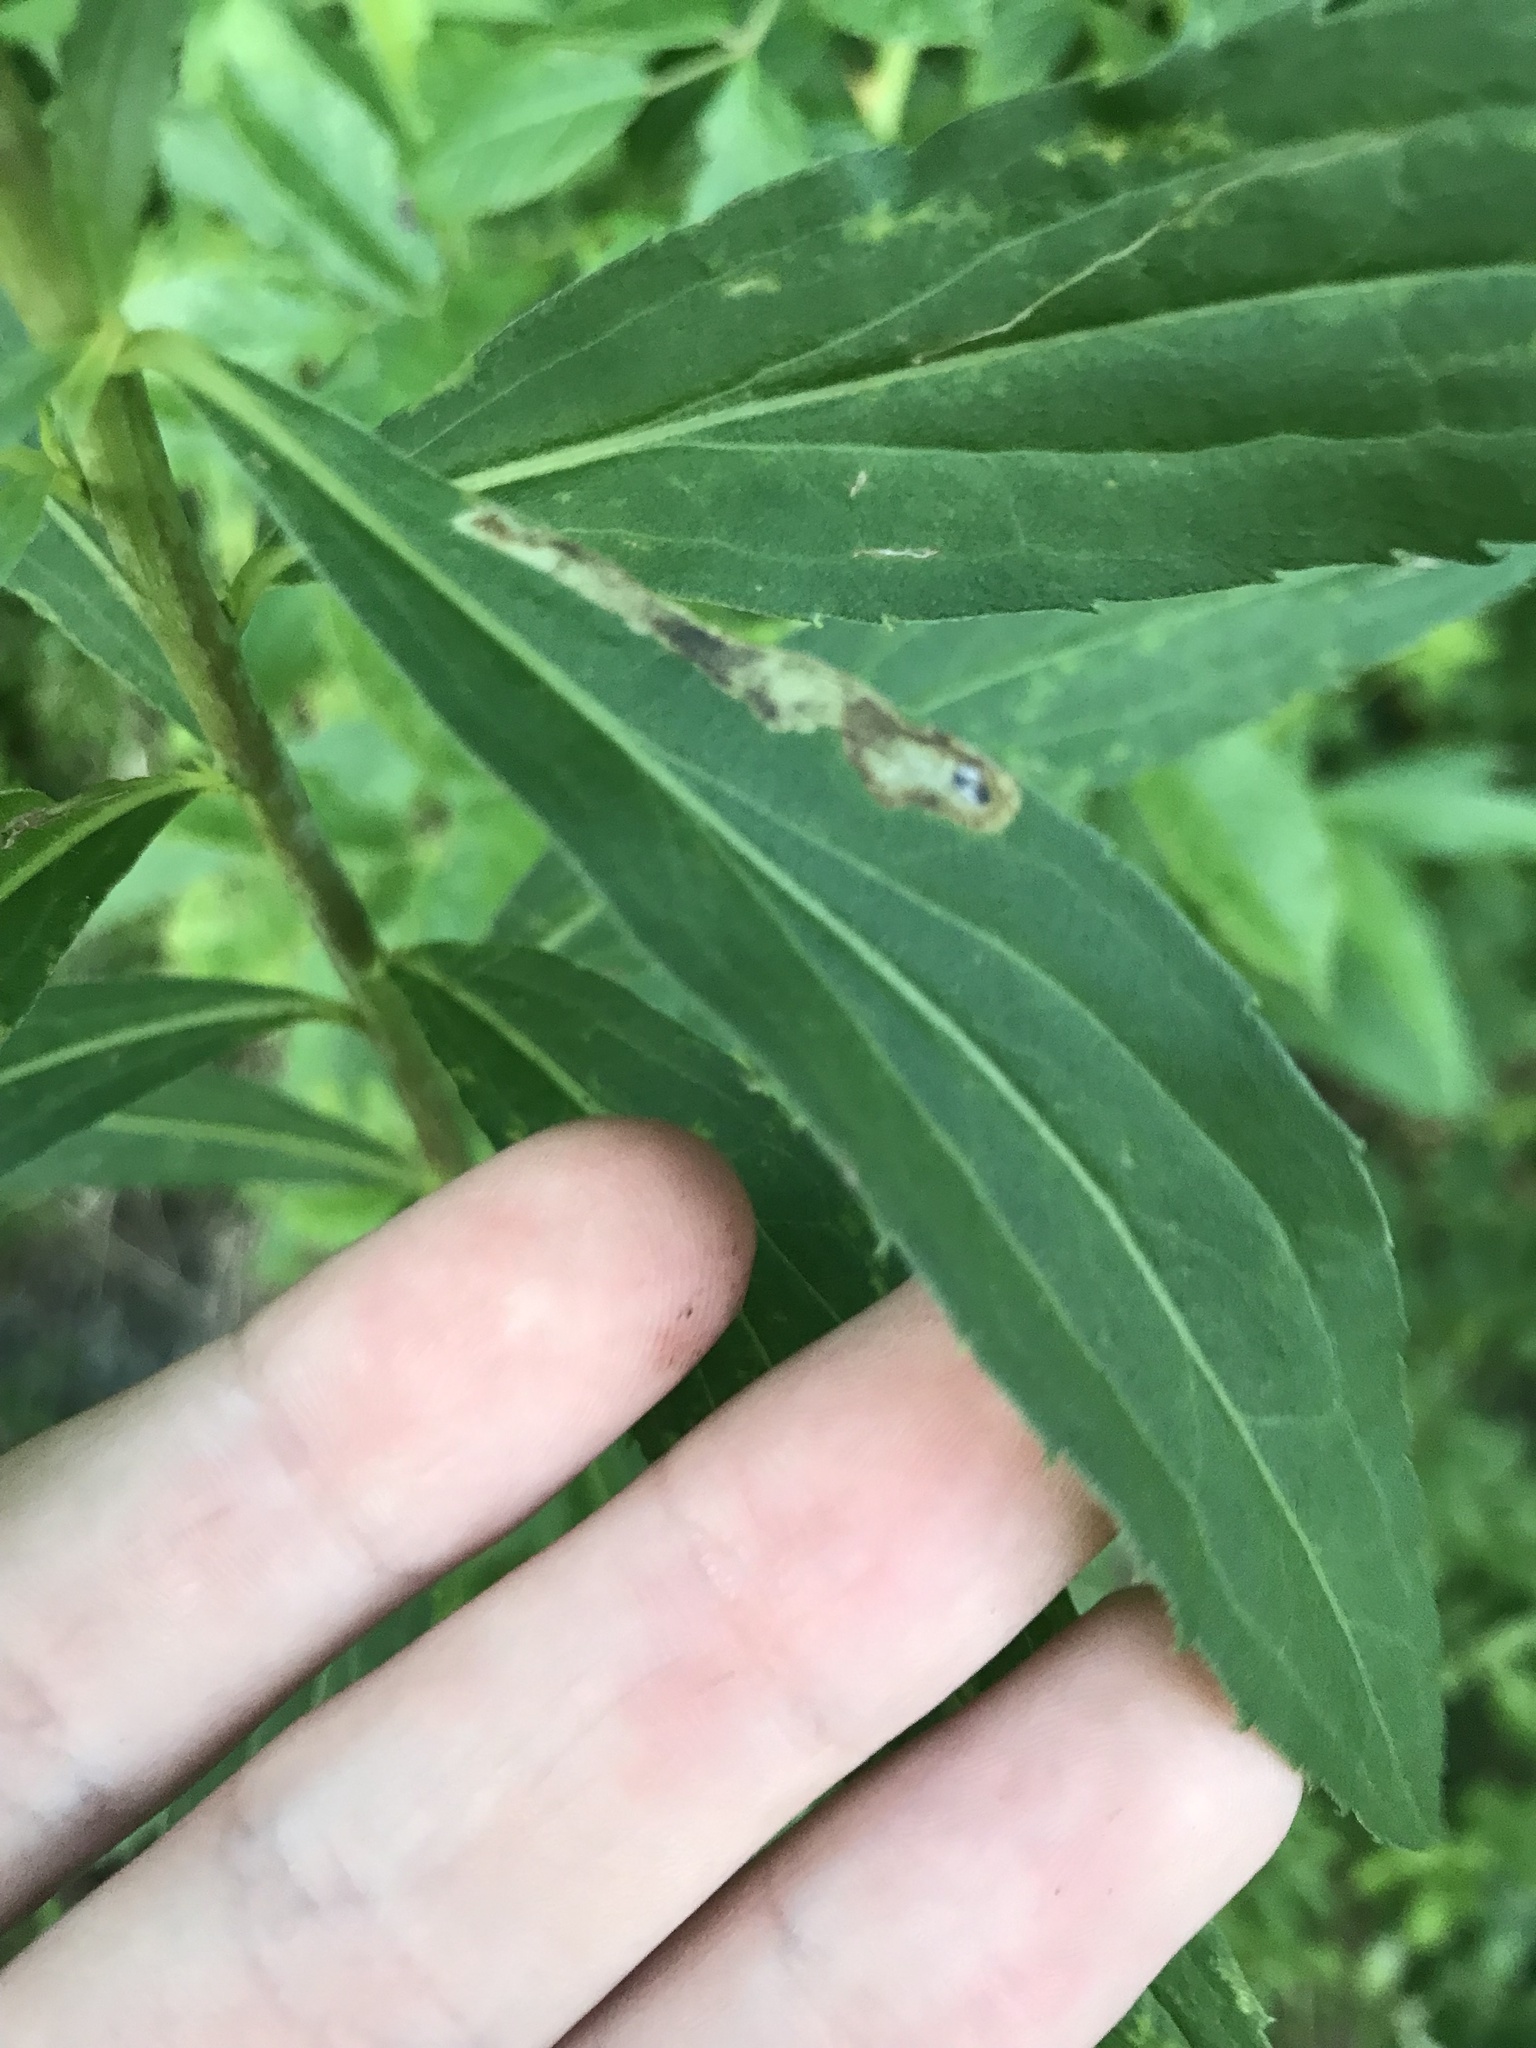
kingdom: Animalia
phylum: Arthropoda
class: Insecta
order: Diptera
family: Agromyzidae
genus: Calycomyza
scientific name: Calycomyza solidaginis
